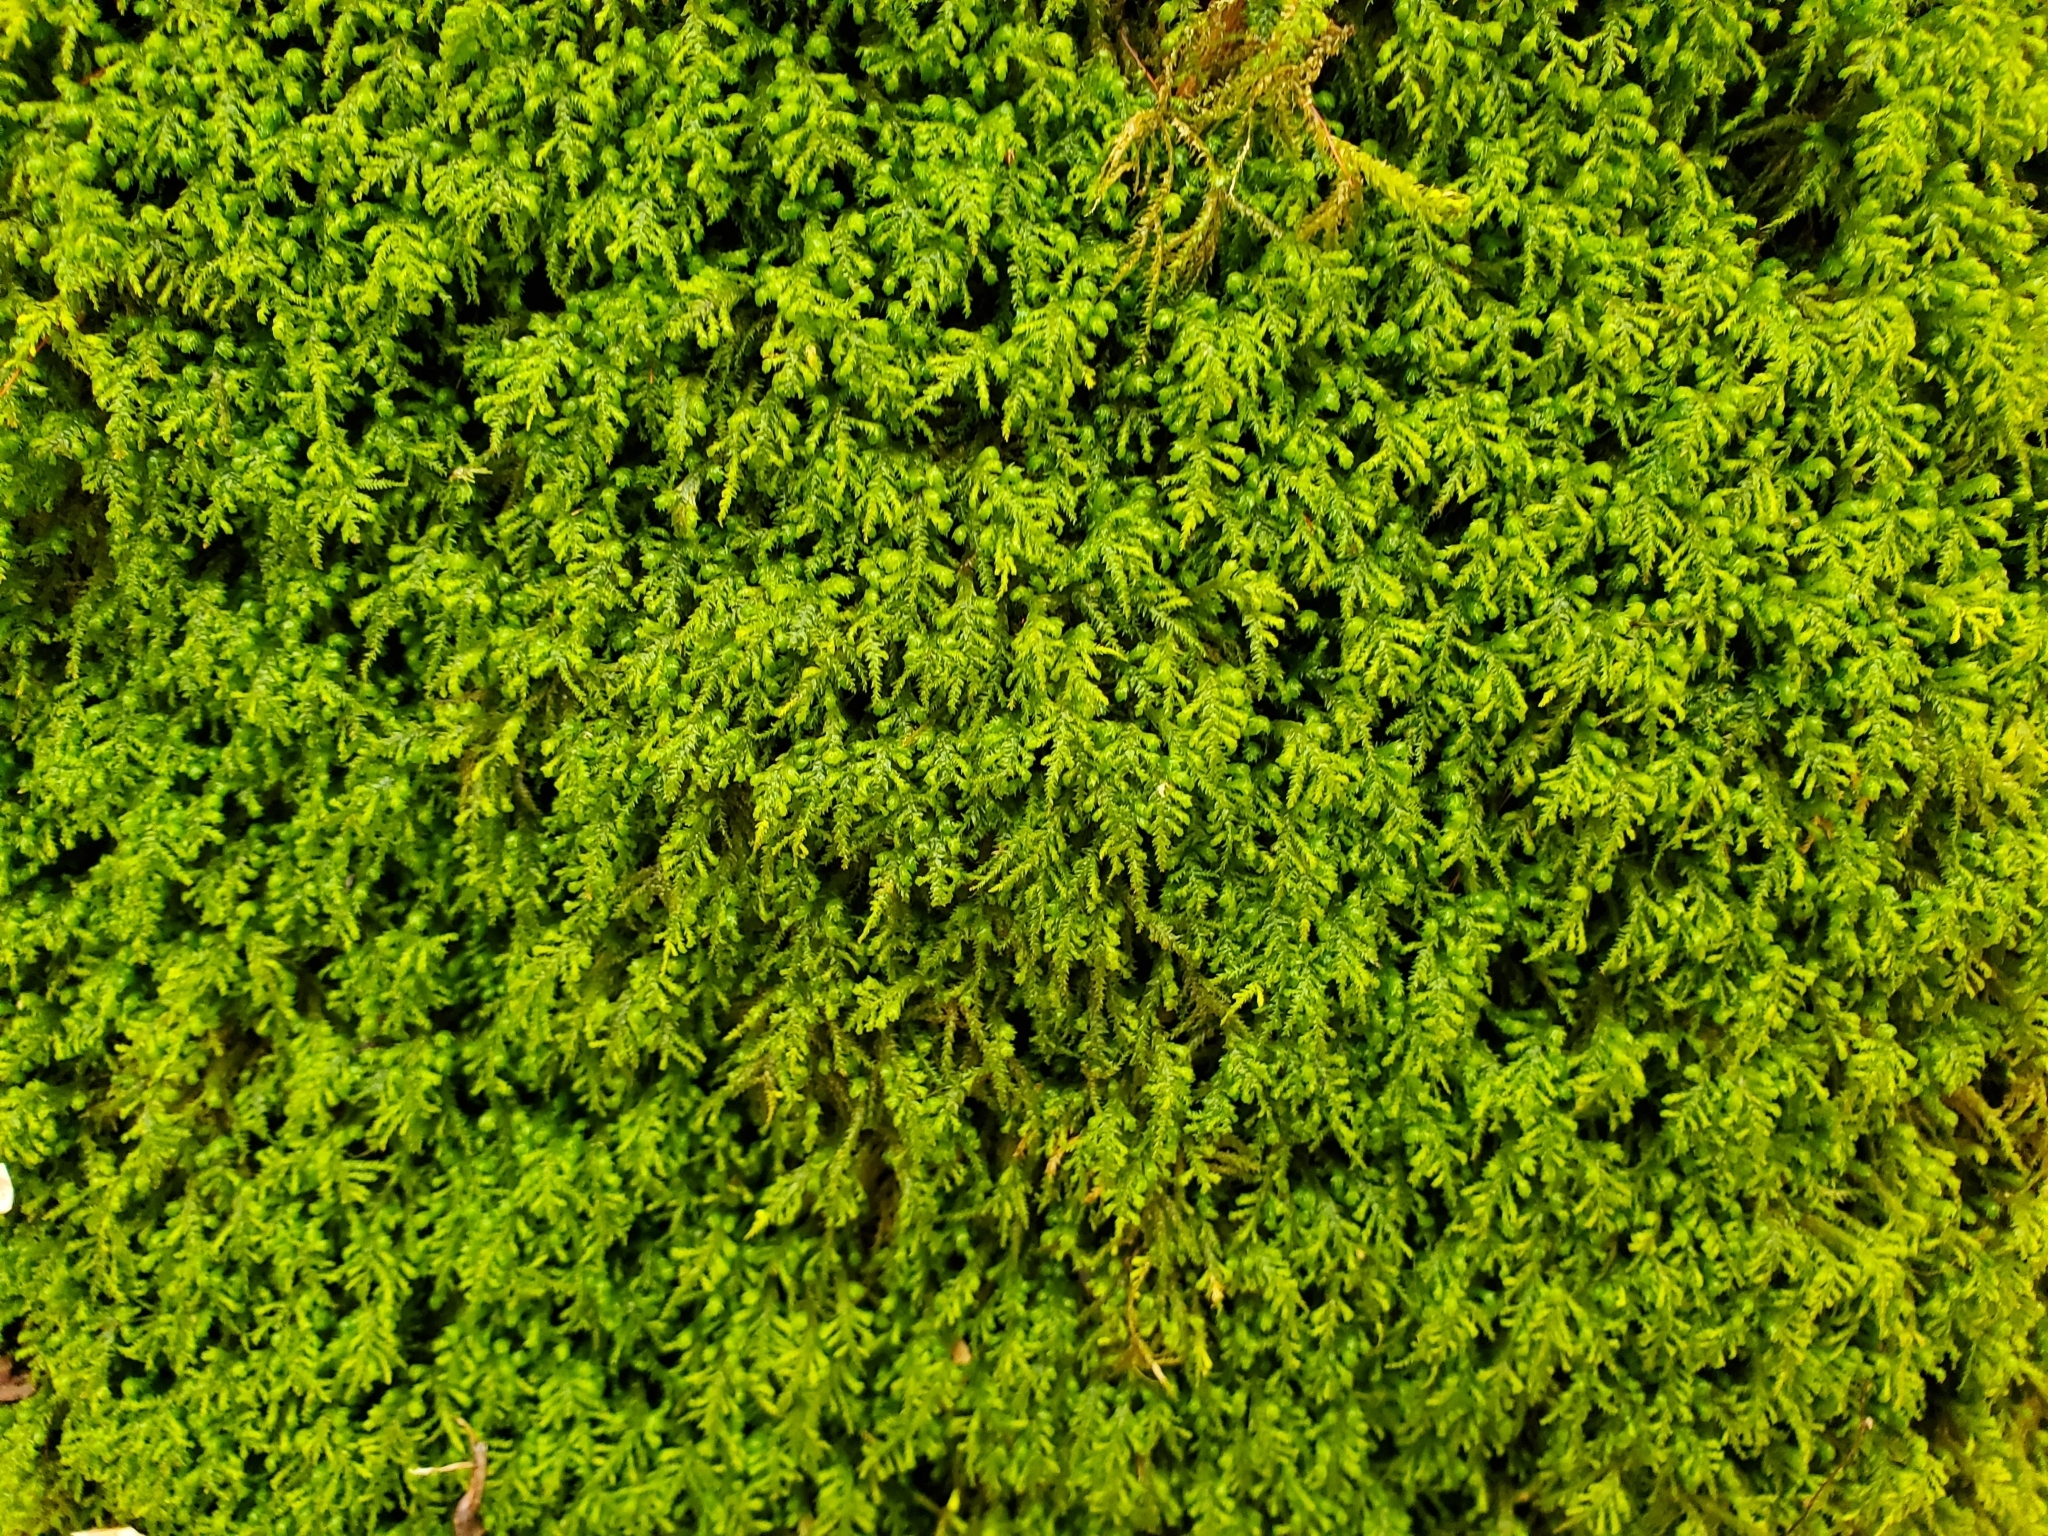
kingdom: Plantae
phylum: Bryophyta
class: Bryopsida
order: Hypnales
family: Neckeraceae
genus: Pseudanomodon
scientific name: Pseudanomodon attenuatus
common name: Tree-skirt moss
